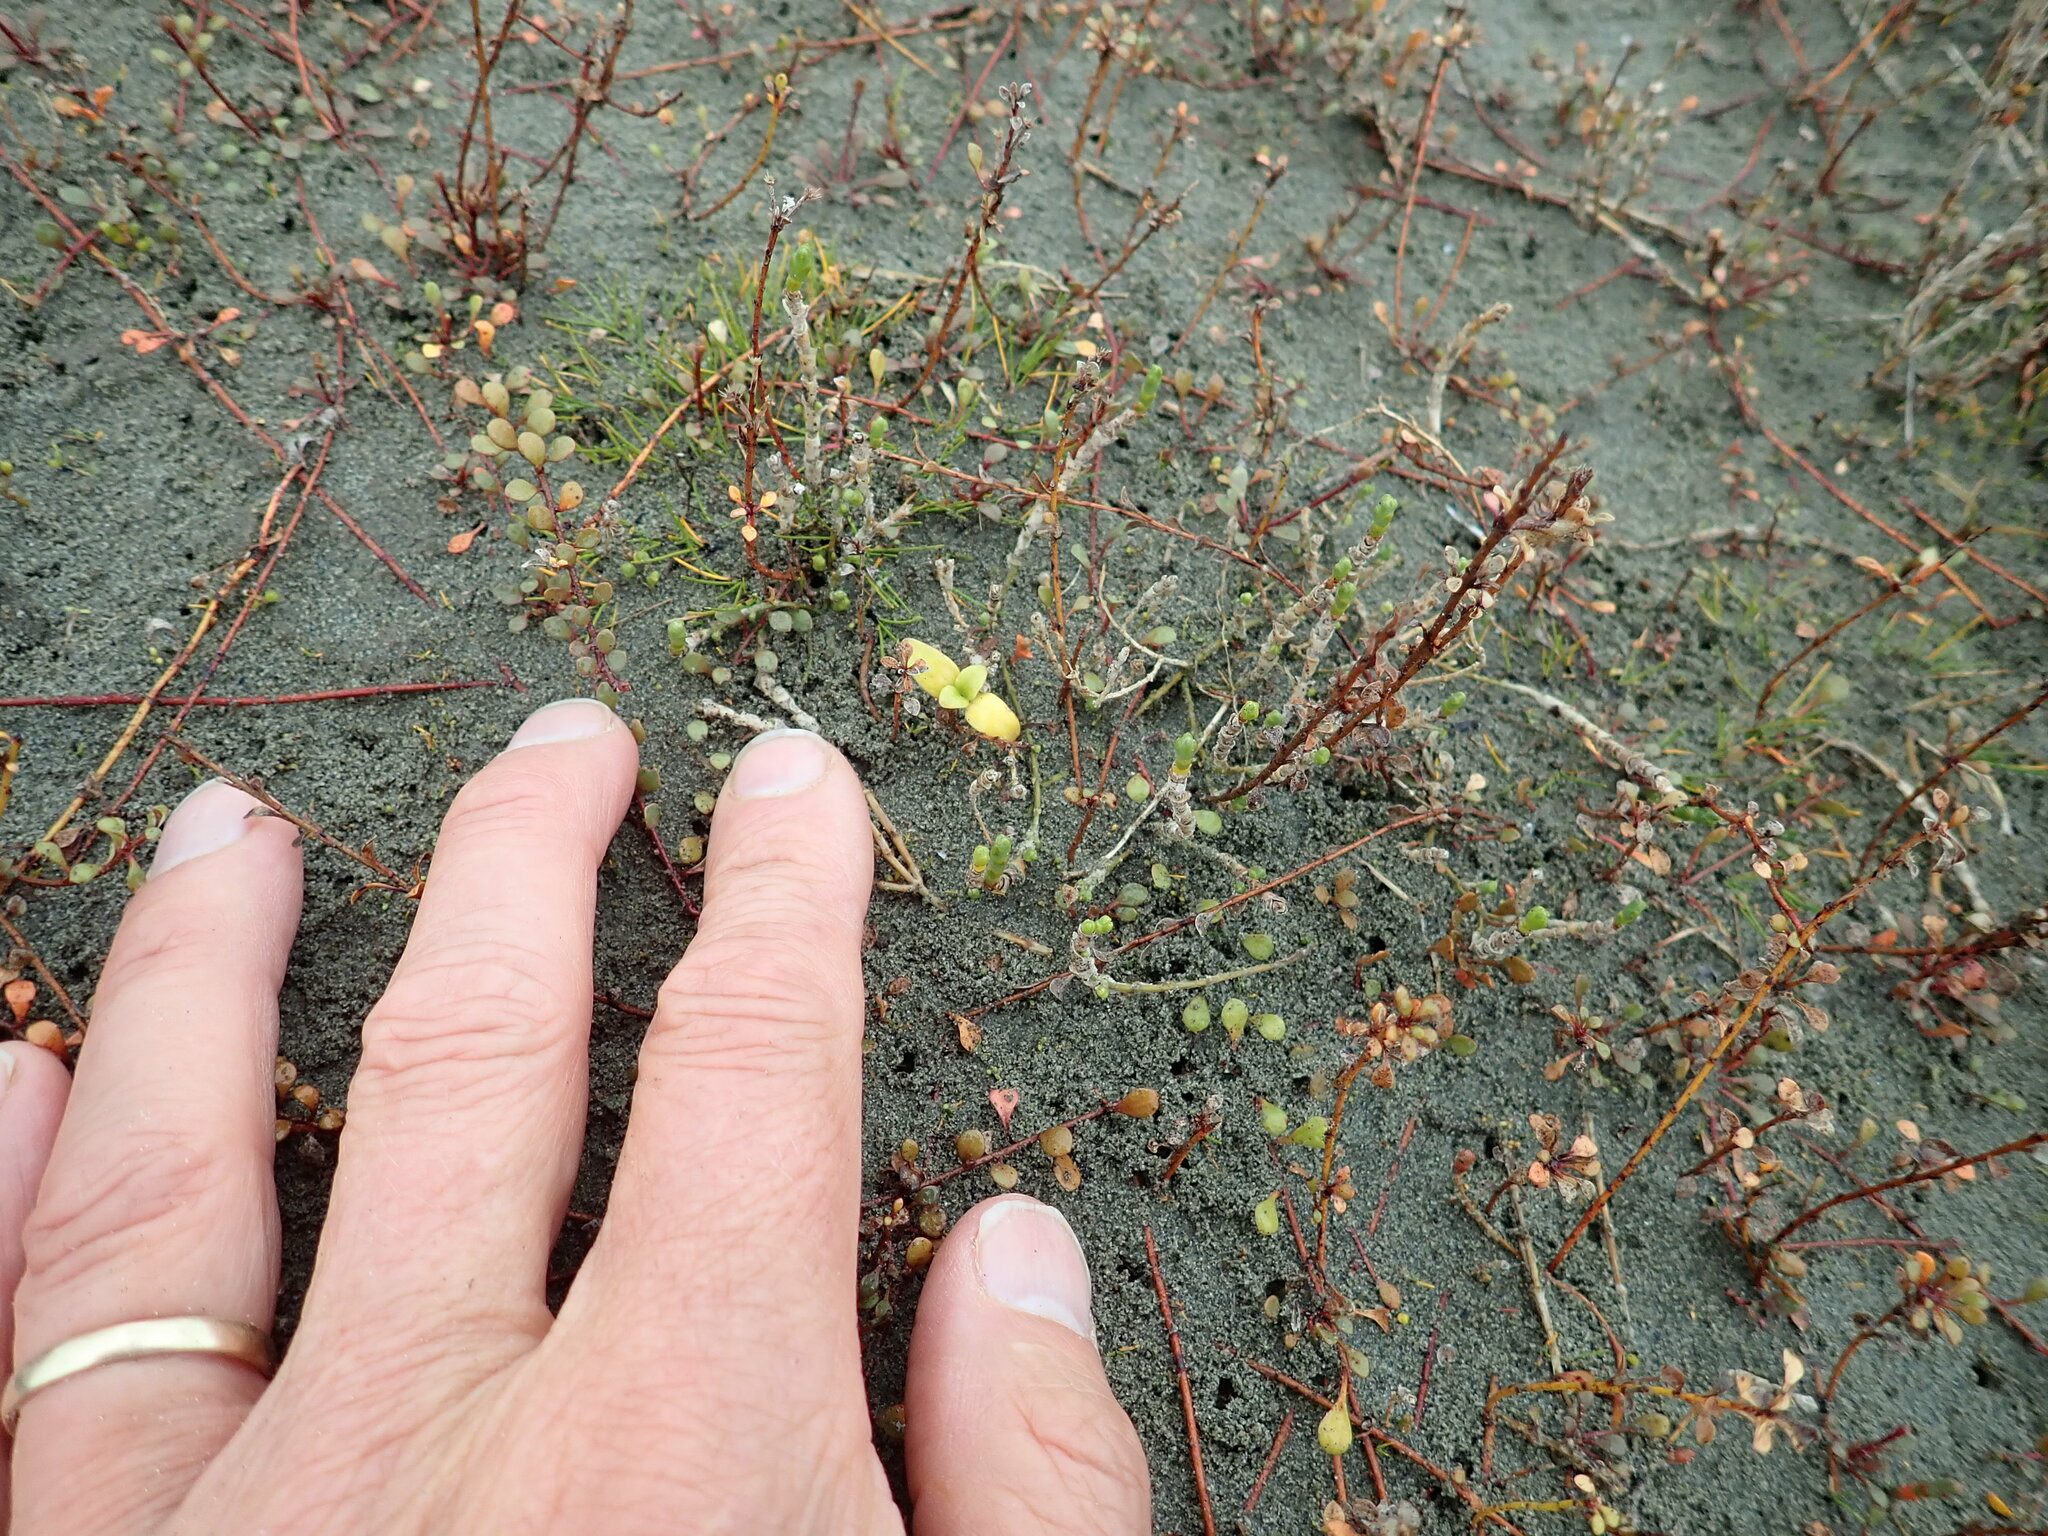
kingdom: Plantae
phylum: Tracheophyta
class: Magnoliopsida
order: Gentianales
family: Rubiaceae
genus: Coprosma
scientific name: Coprosma repens
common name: Tree bedstraw
